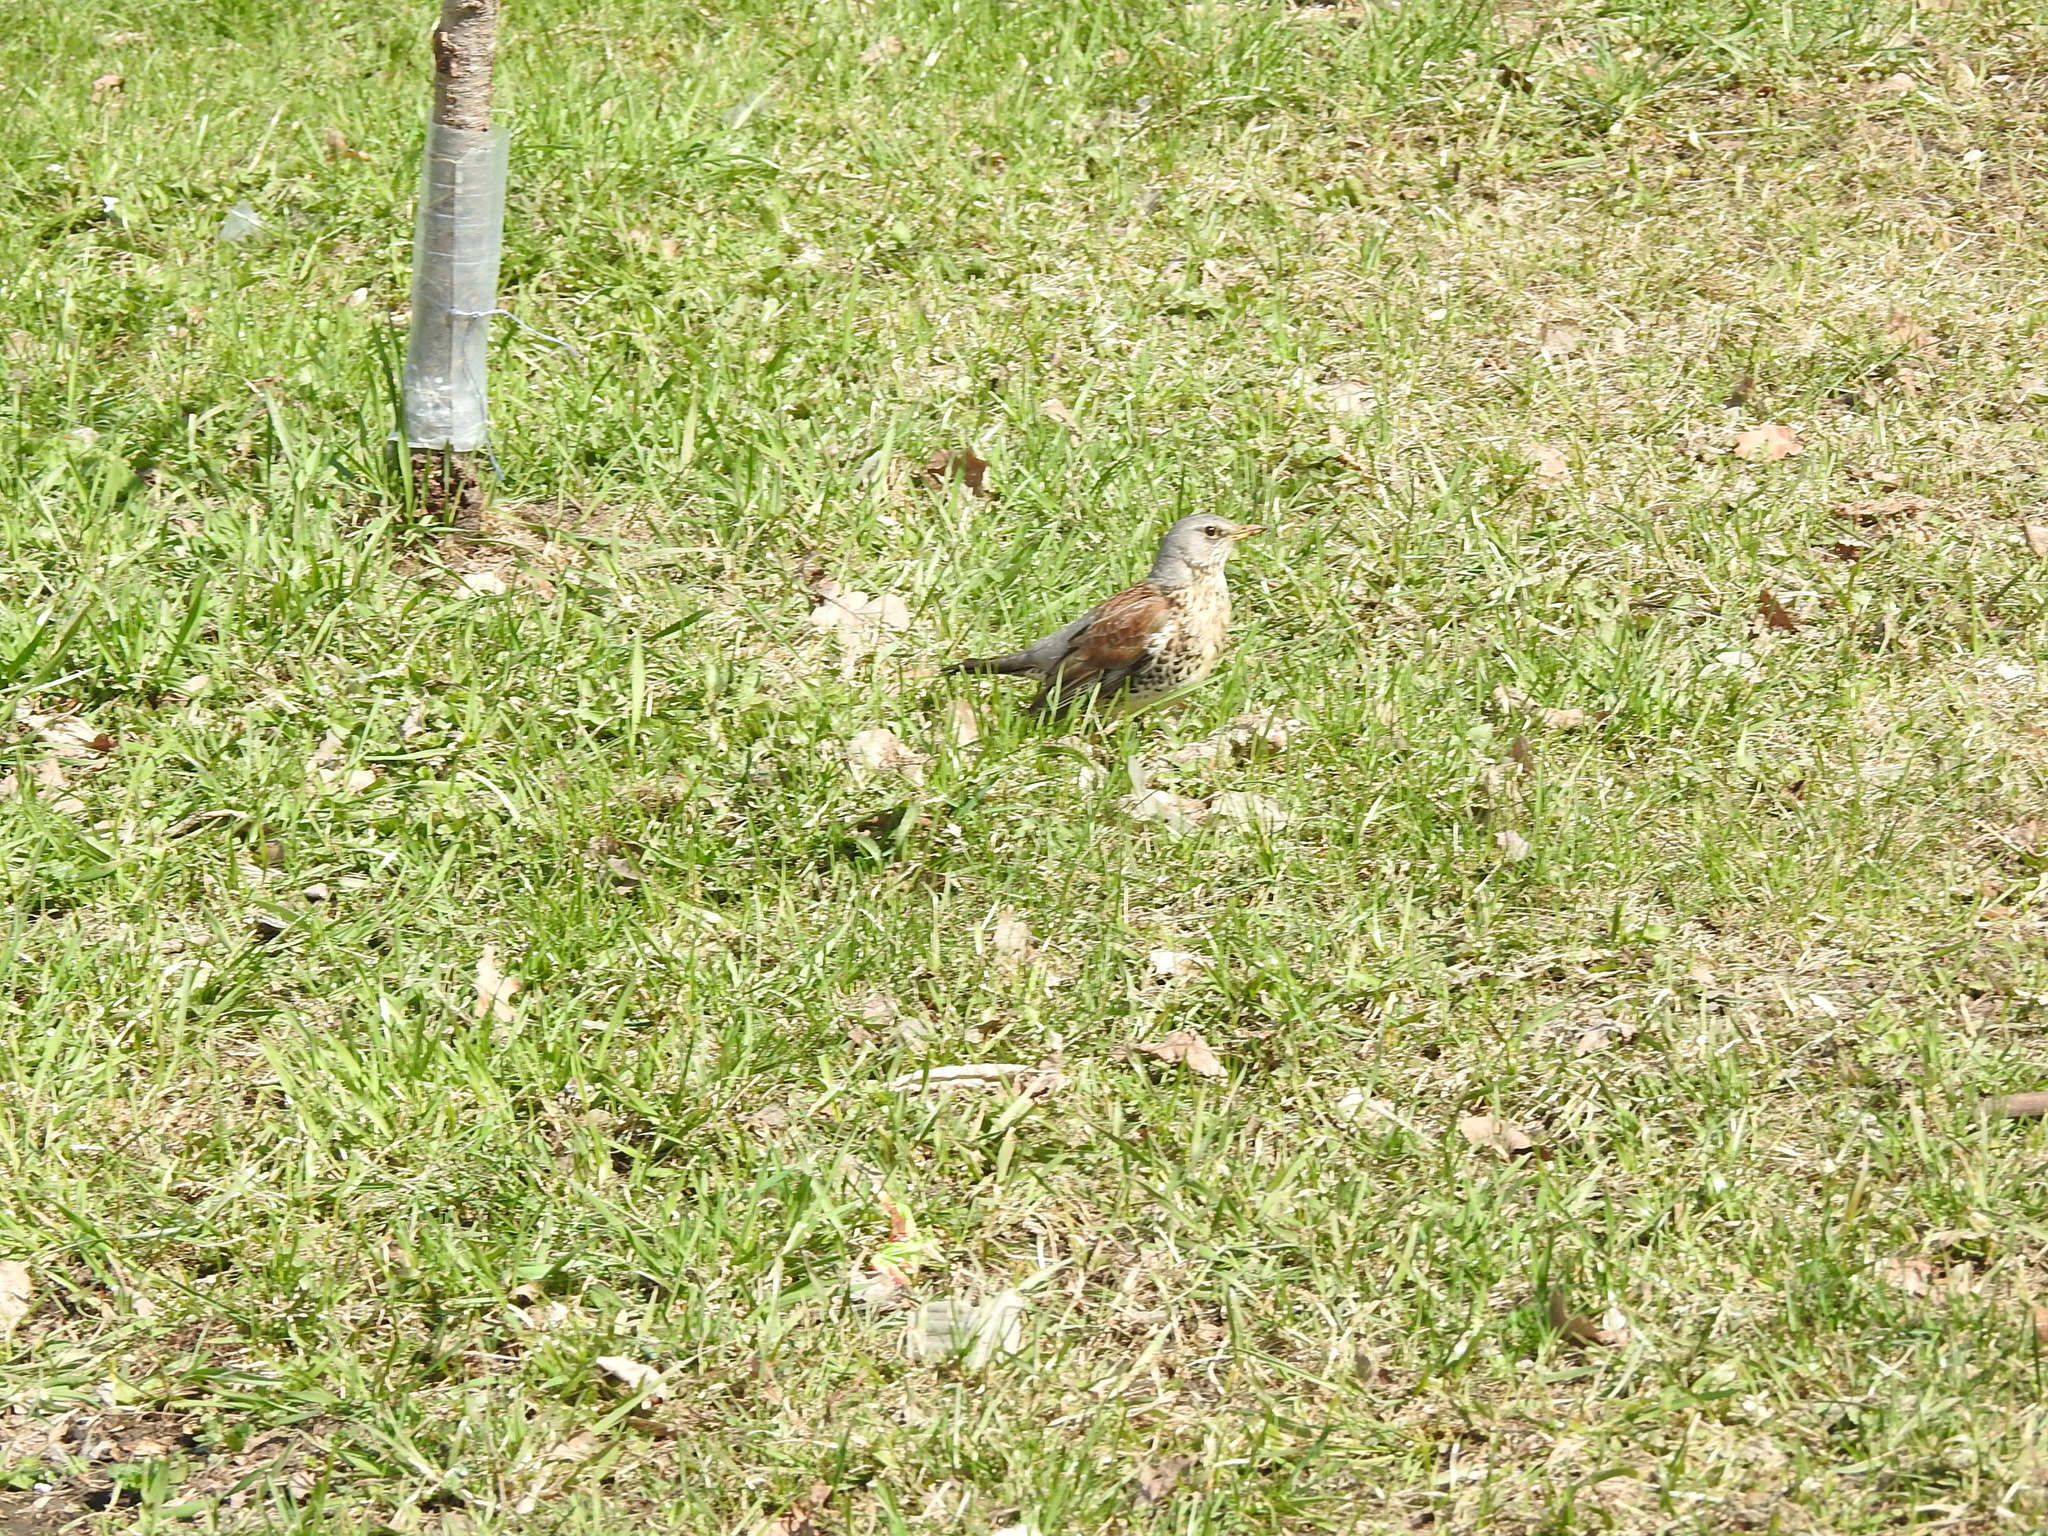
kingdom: Animalia
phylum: Chordata
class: Aves
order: Passeriformes
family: Turdidae
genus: Turdus
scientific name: Turdus pilaris
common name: Fieldfare
